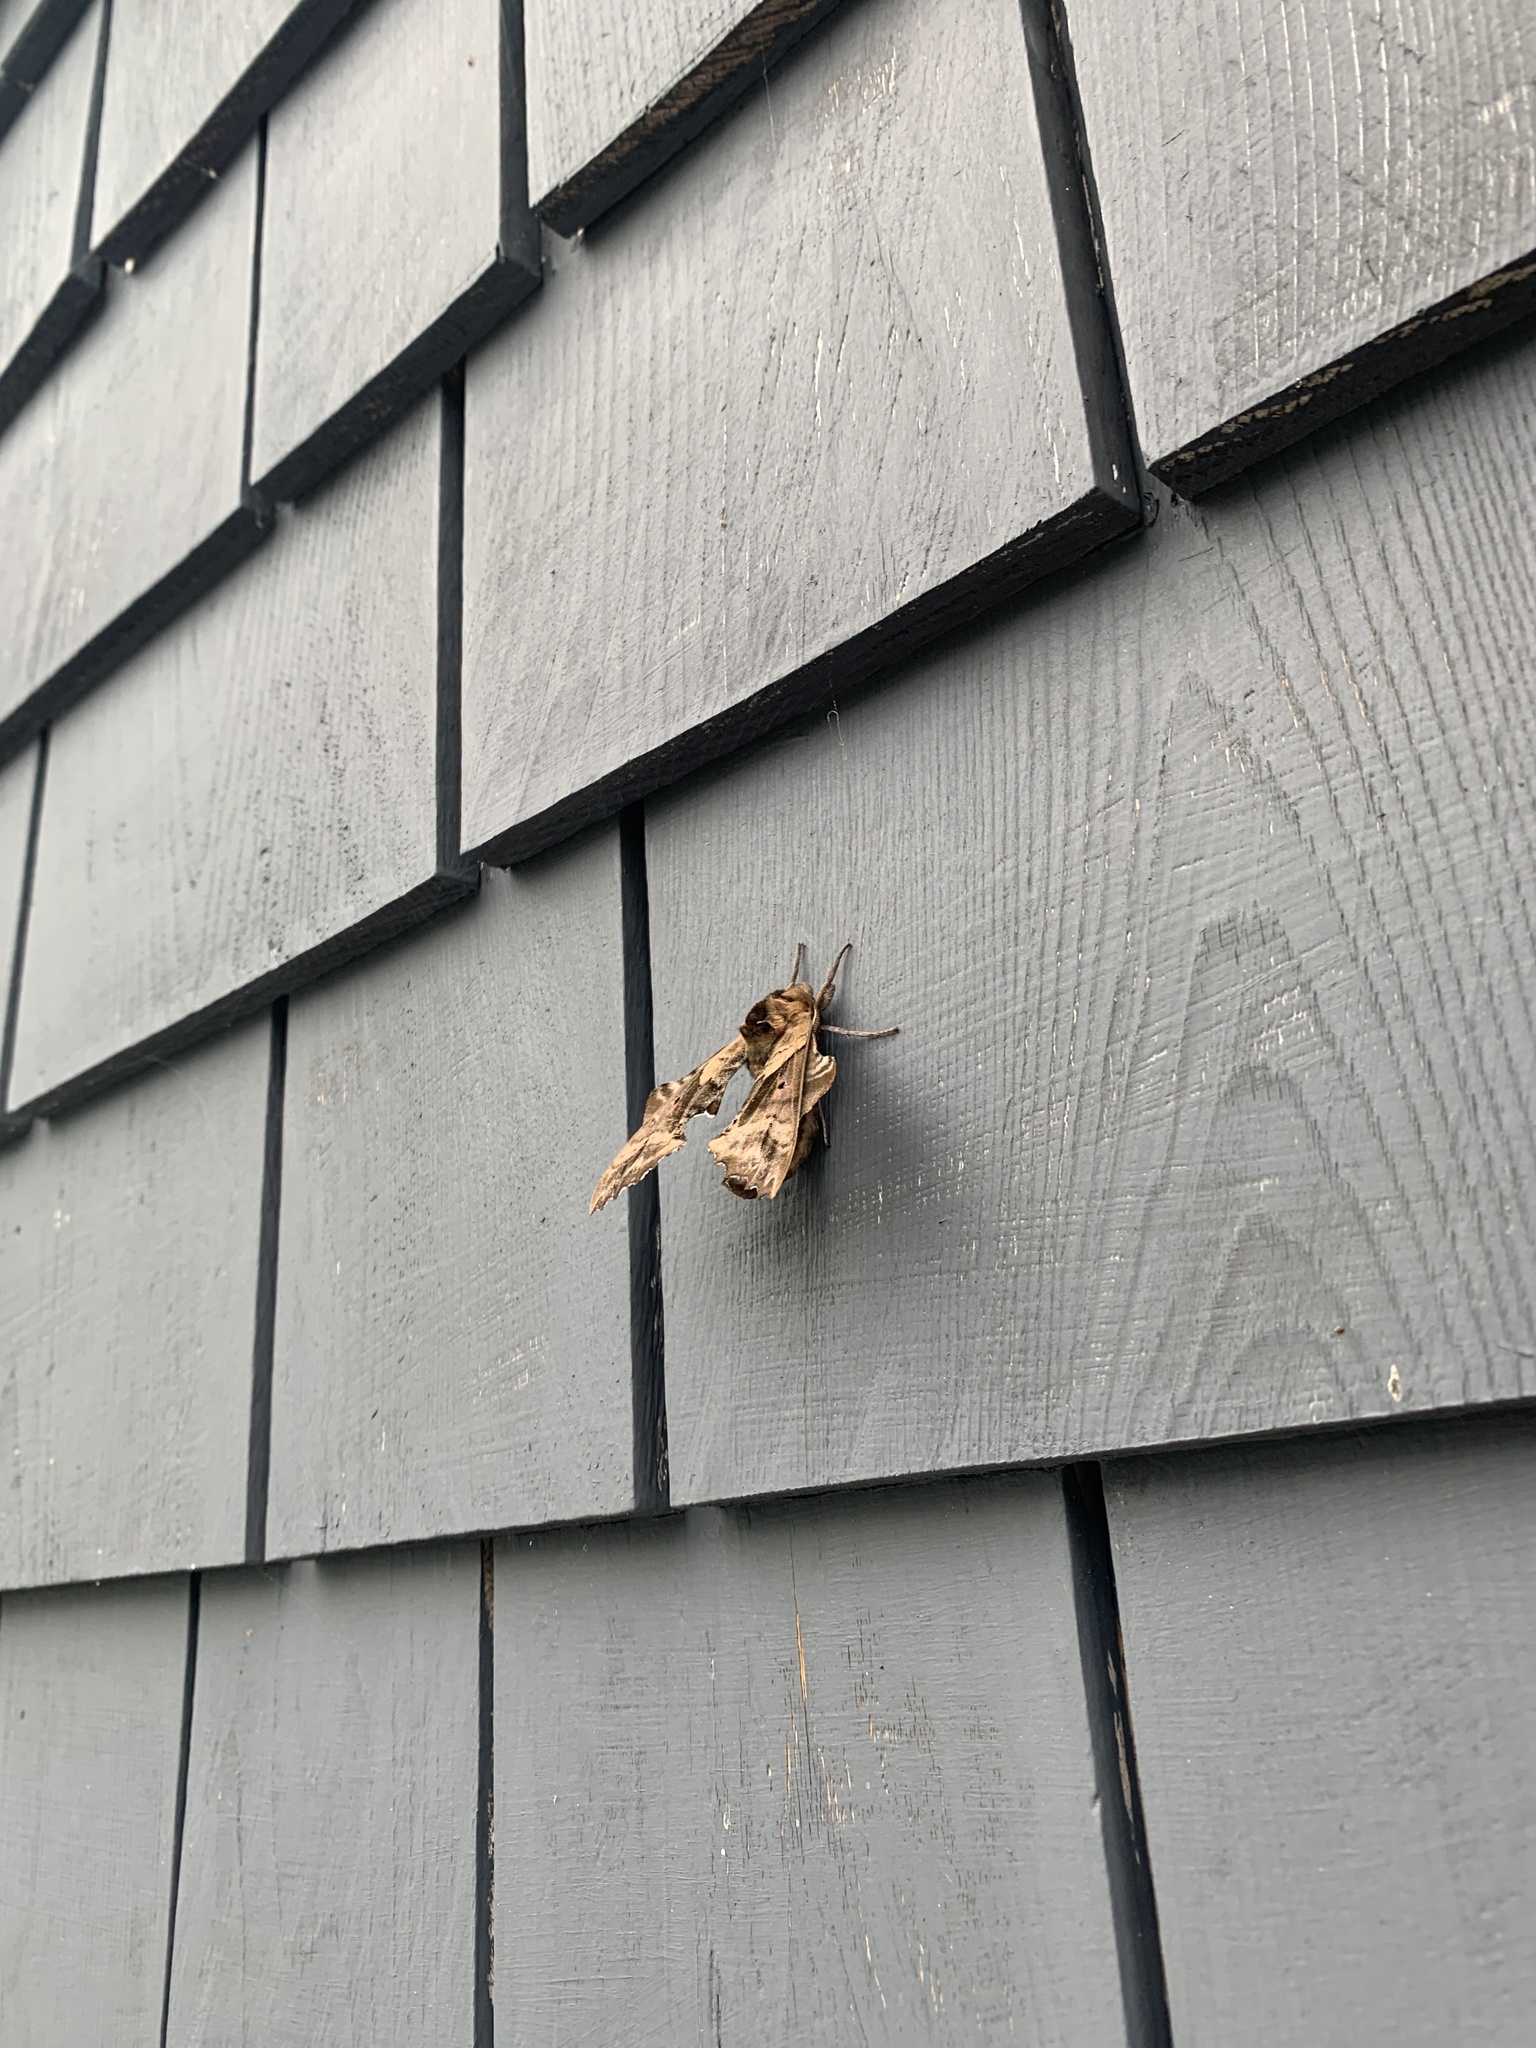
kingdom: Animalia
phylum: Arthropoda
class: Insecta
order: Lepidoptera
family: Sphingidae
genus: Paonias
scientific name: Paonias excaecata
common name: Blind-eyed sphinx
